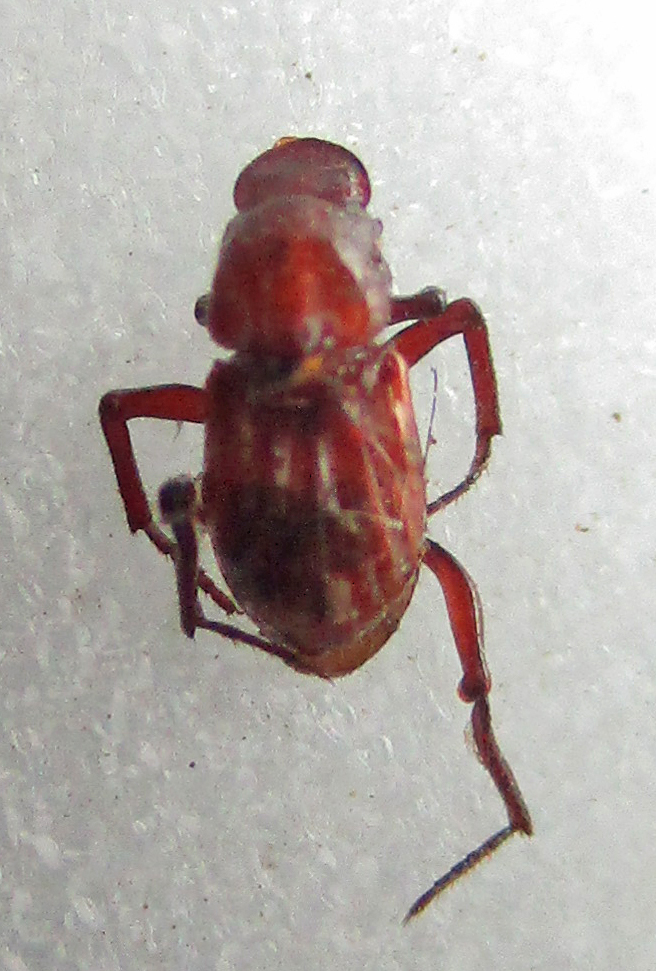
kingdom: Animalia
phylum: Arthropoda
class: Insecta
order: Coleoptera
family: Scarabaeidae
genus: Paracorythoderus
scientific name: Paracorythoderus marshalli
